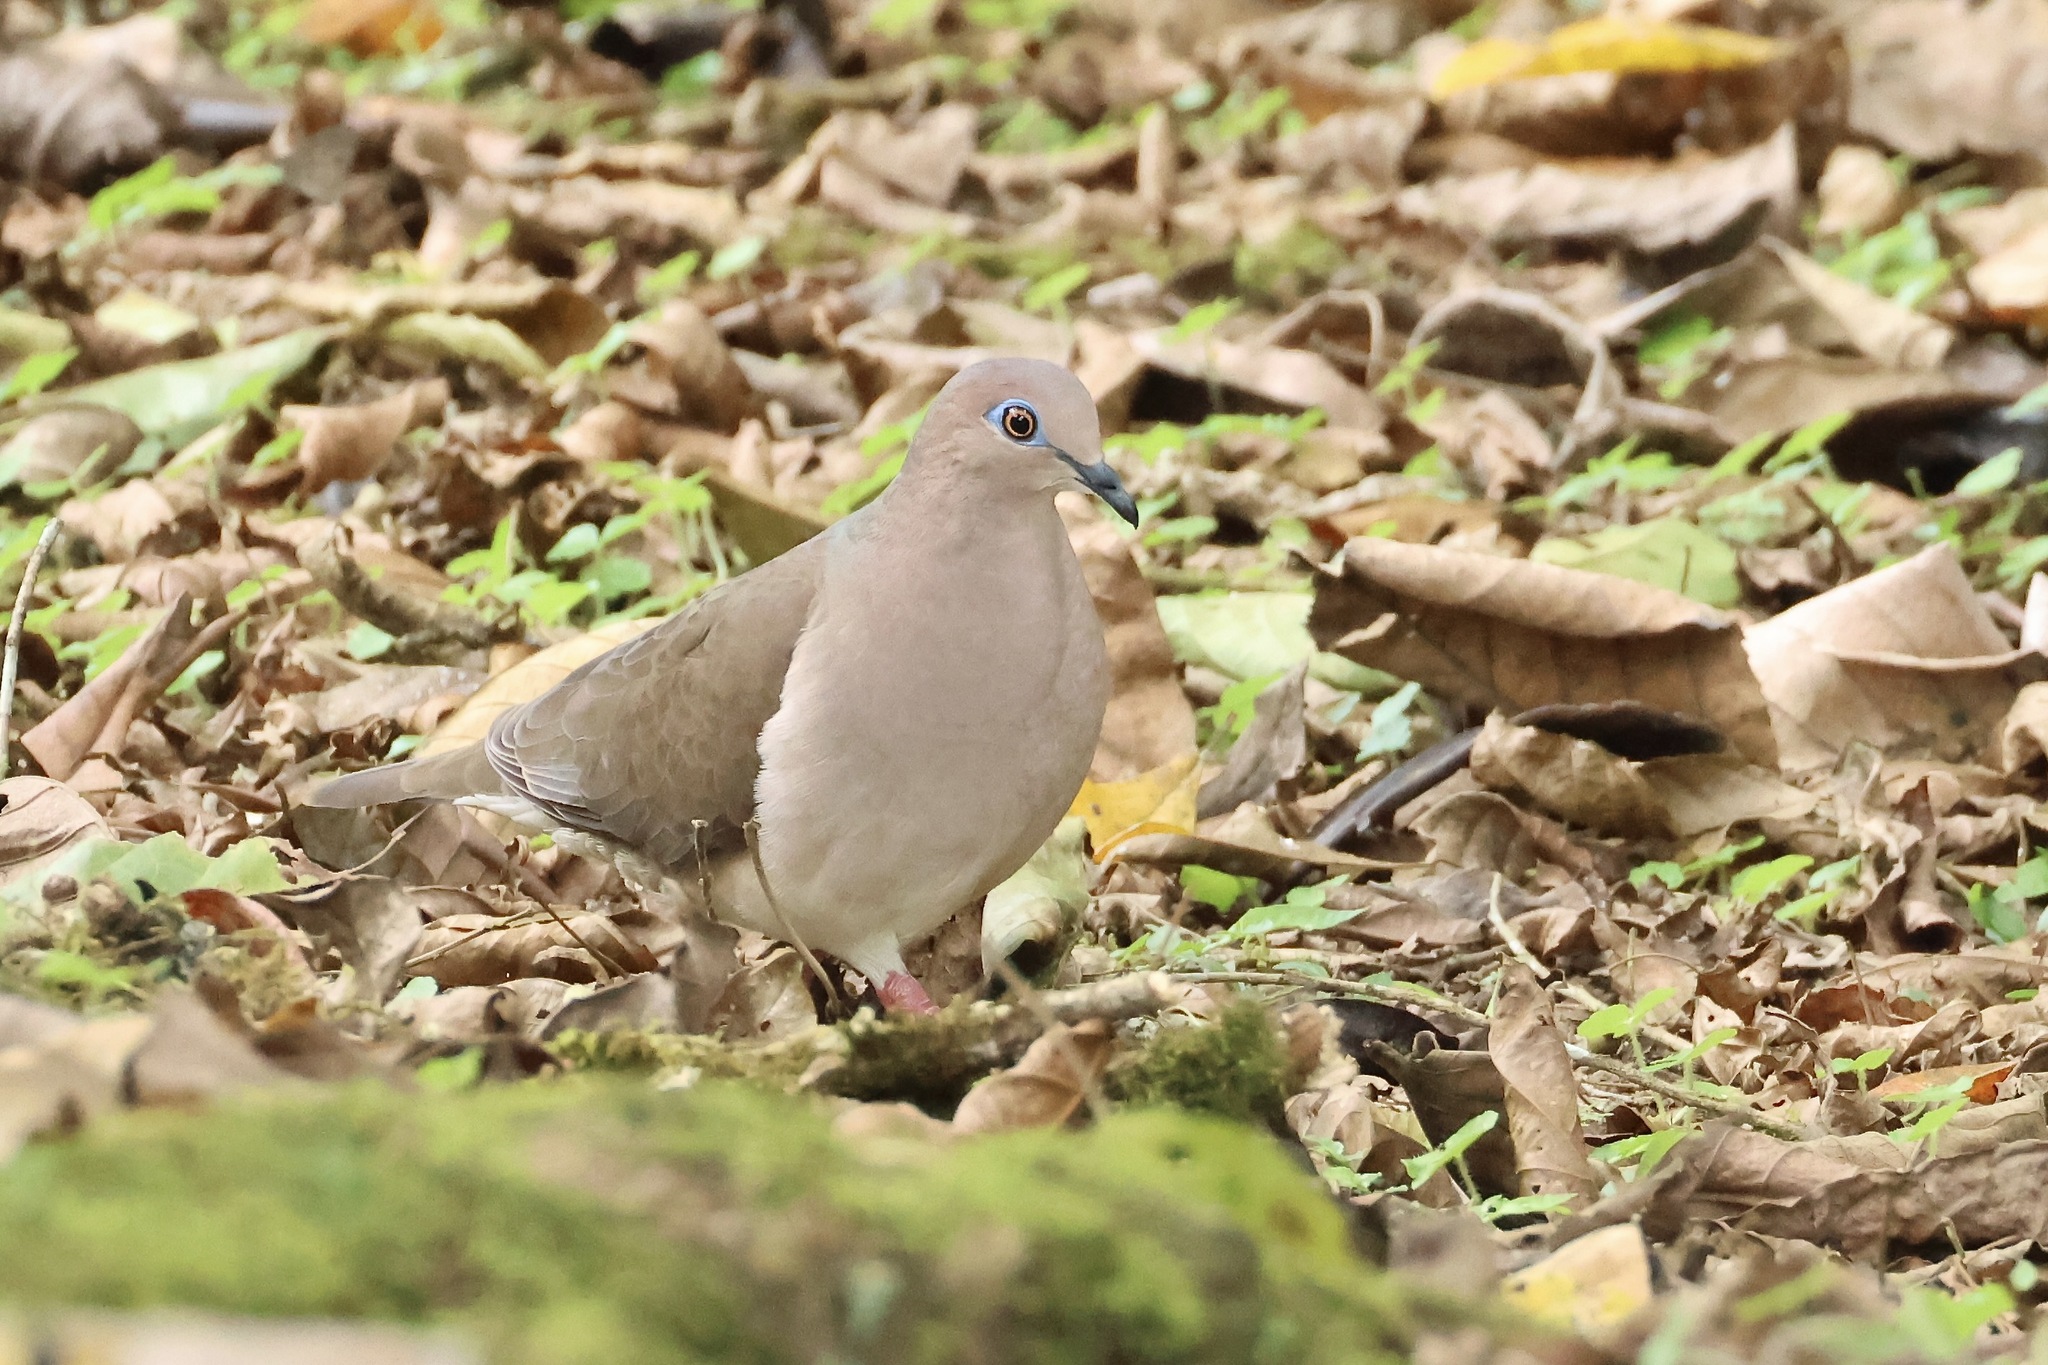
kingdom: Animalia
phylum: Chordata
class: Aves
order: Columbiformes
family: Columbidae
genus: Leptotila
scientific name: Leptotila verreauxi
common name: White-tipped dove
